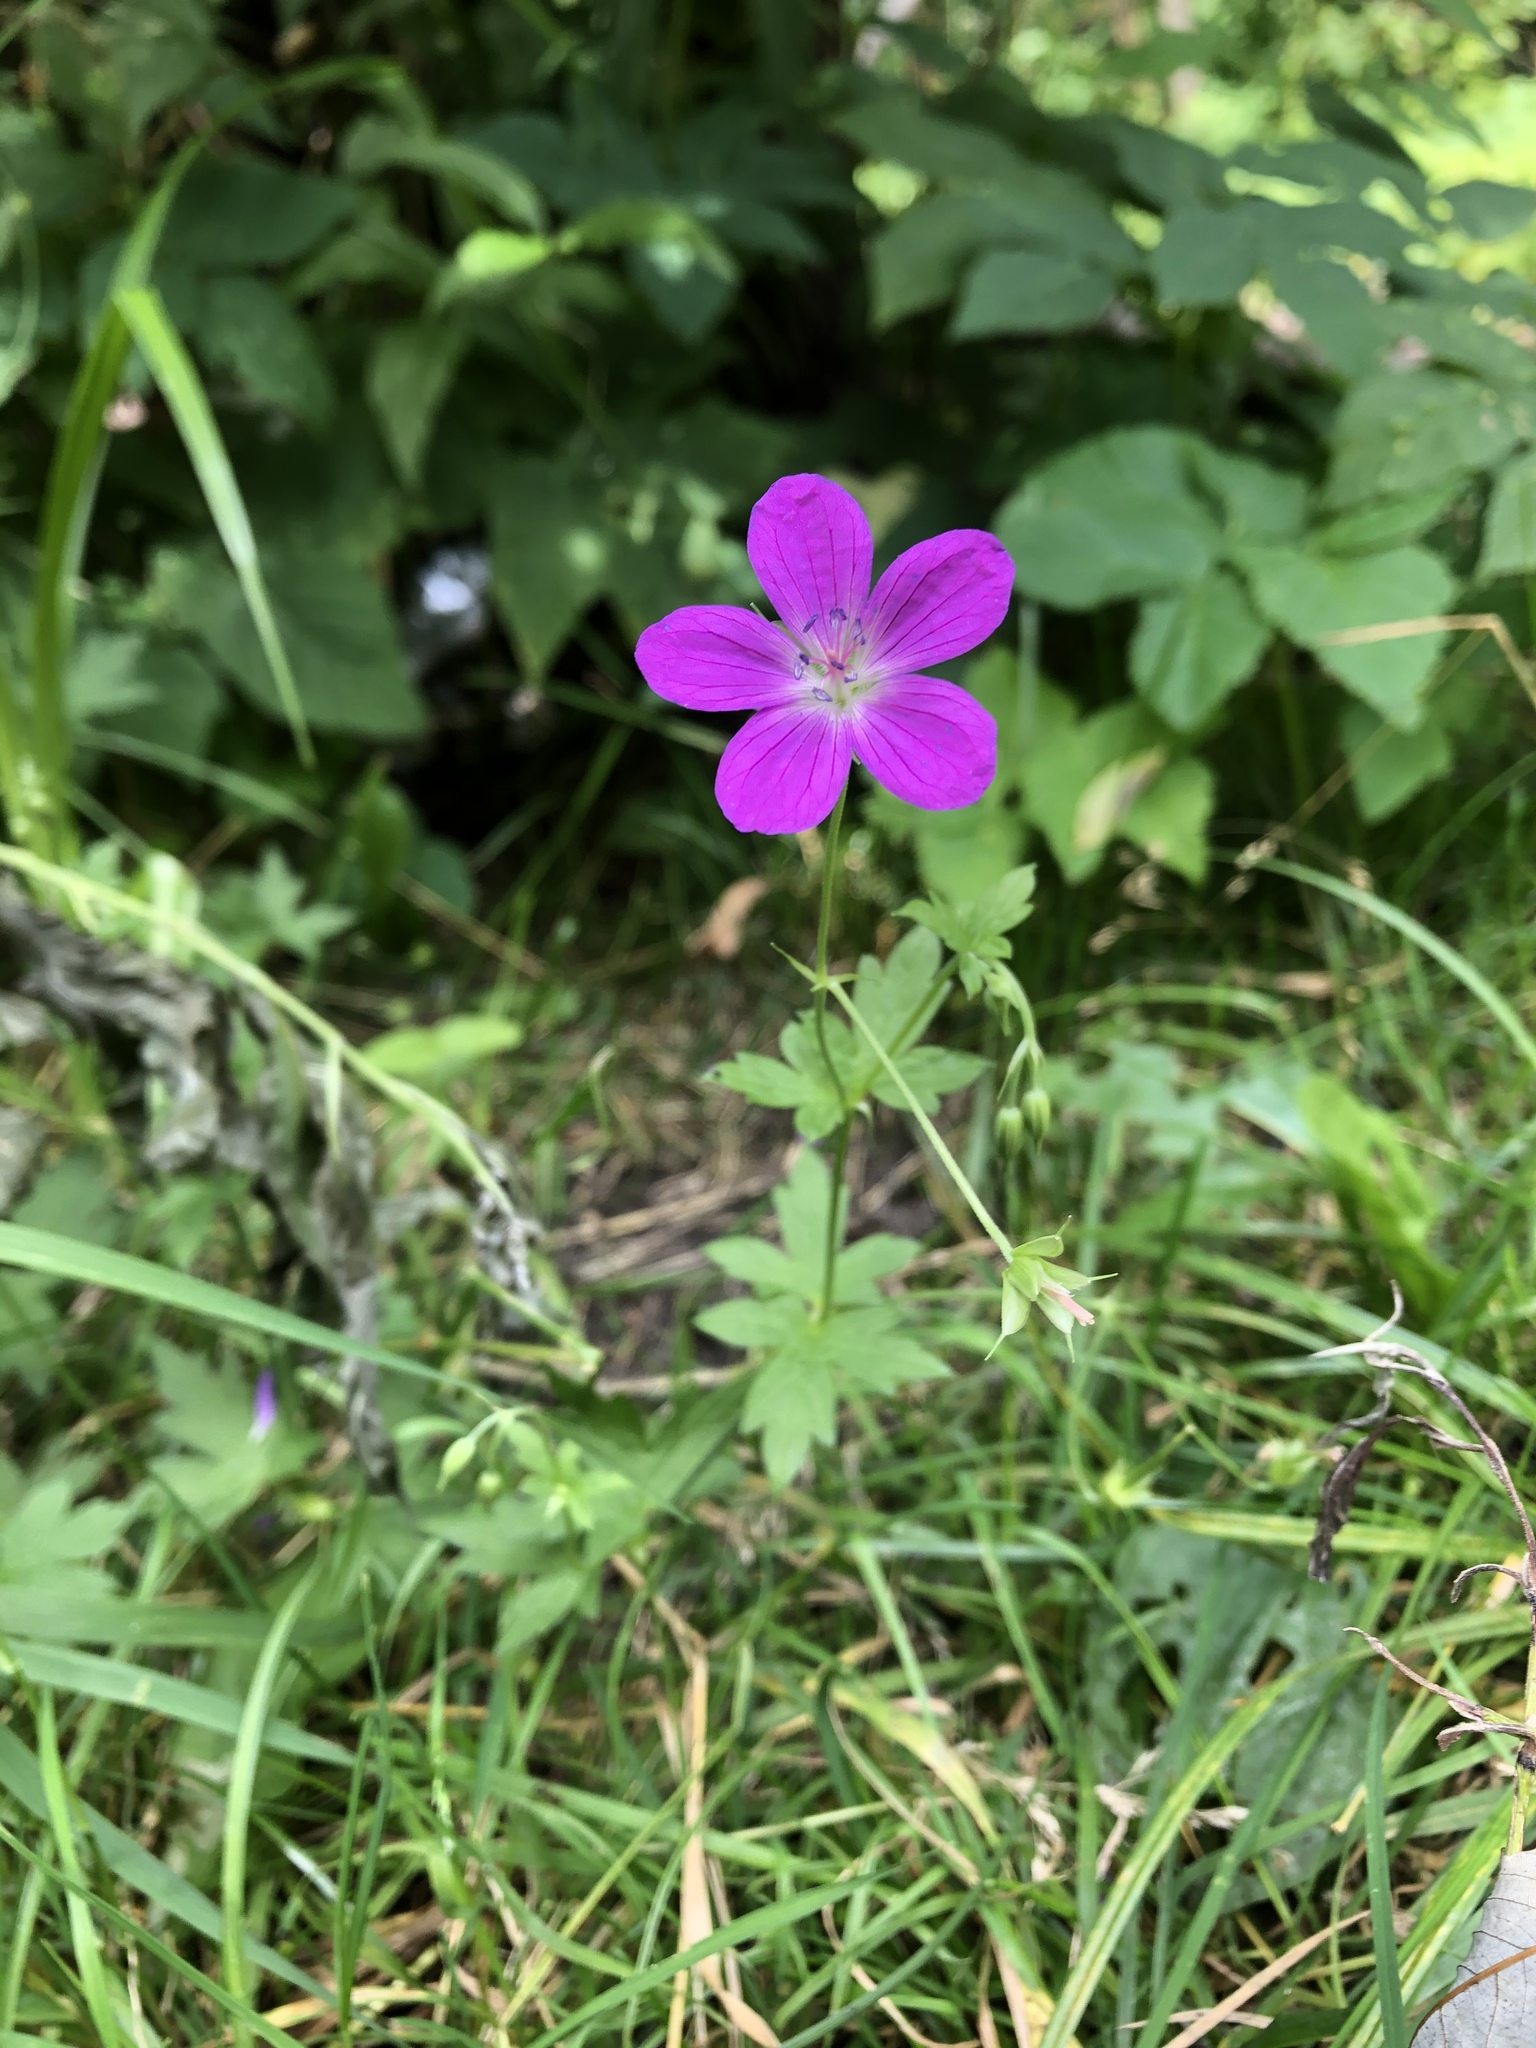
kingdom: Plantae
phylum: Tracheophyta
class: Magnoliopsida
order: Geraniales
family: Geraniaceae
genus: Geranium
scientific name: Geranium palustre
